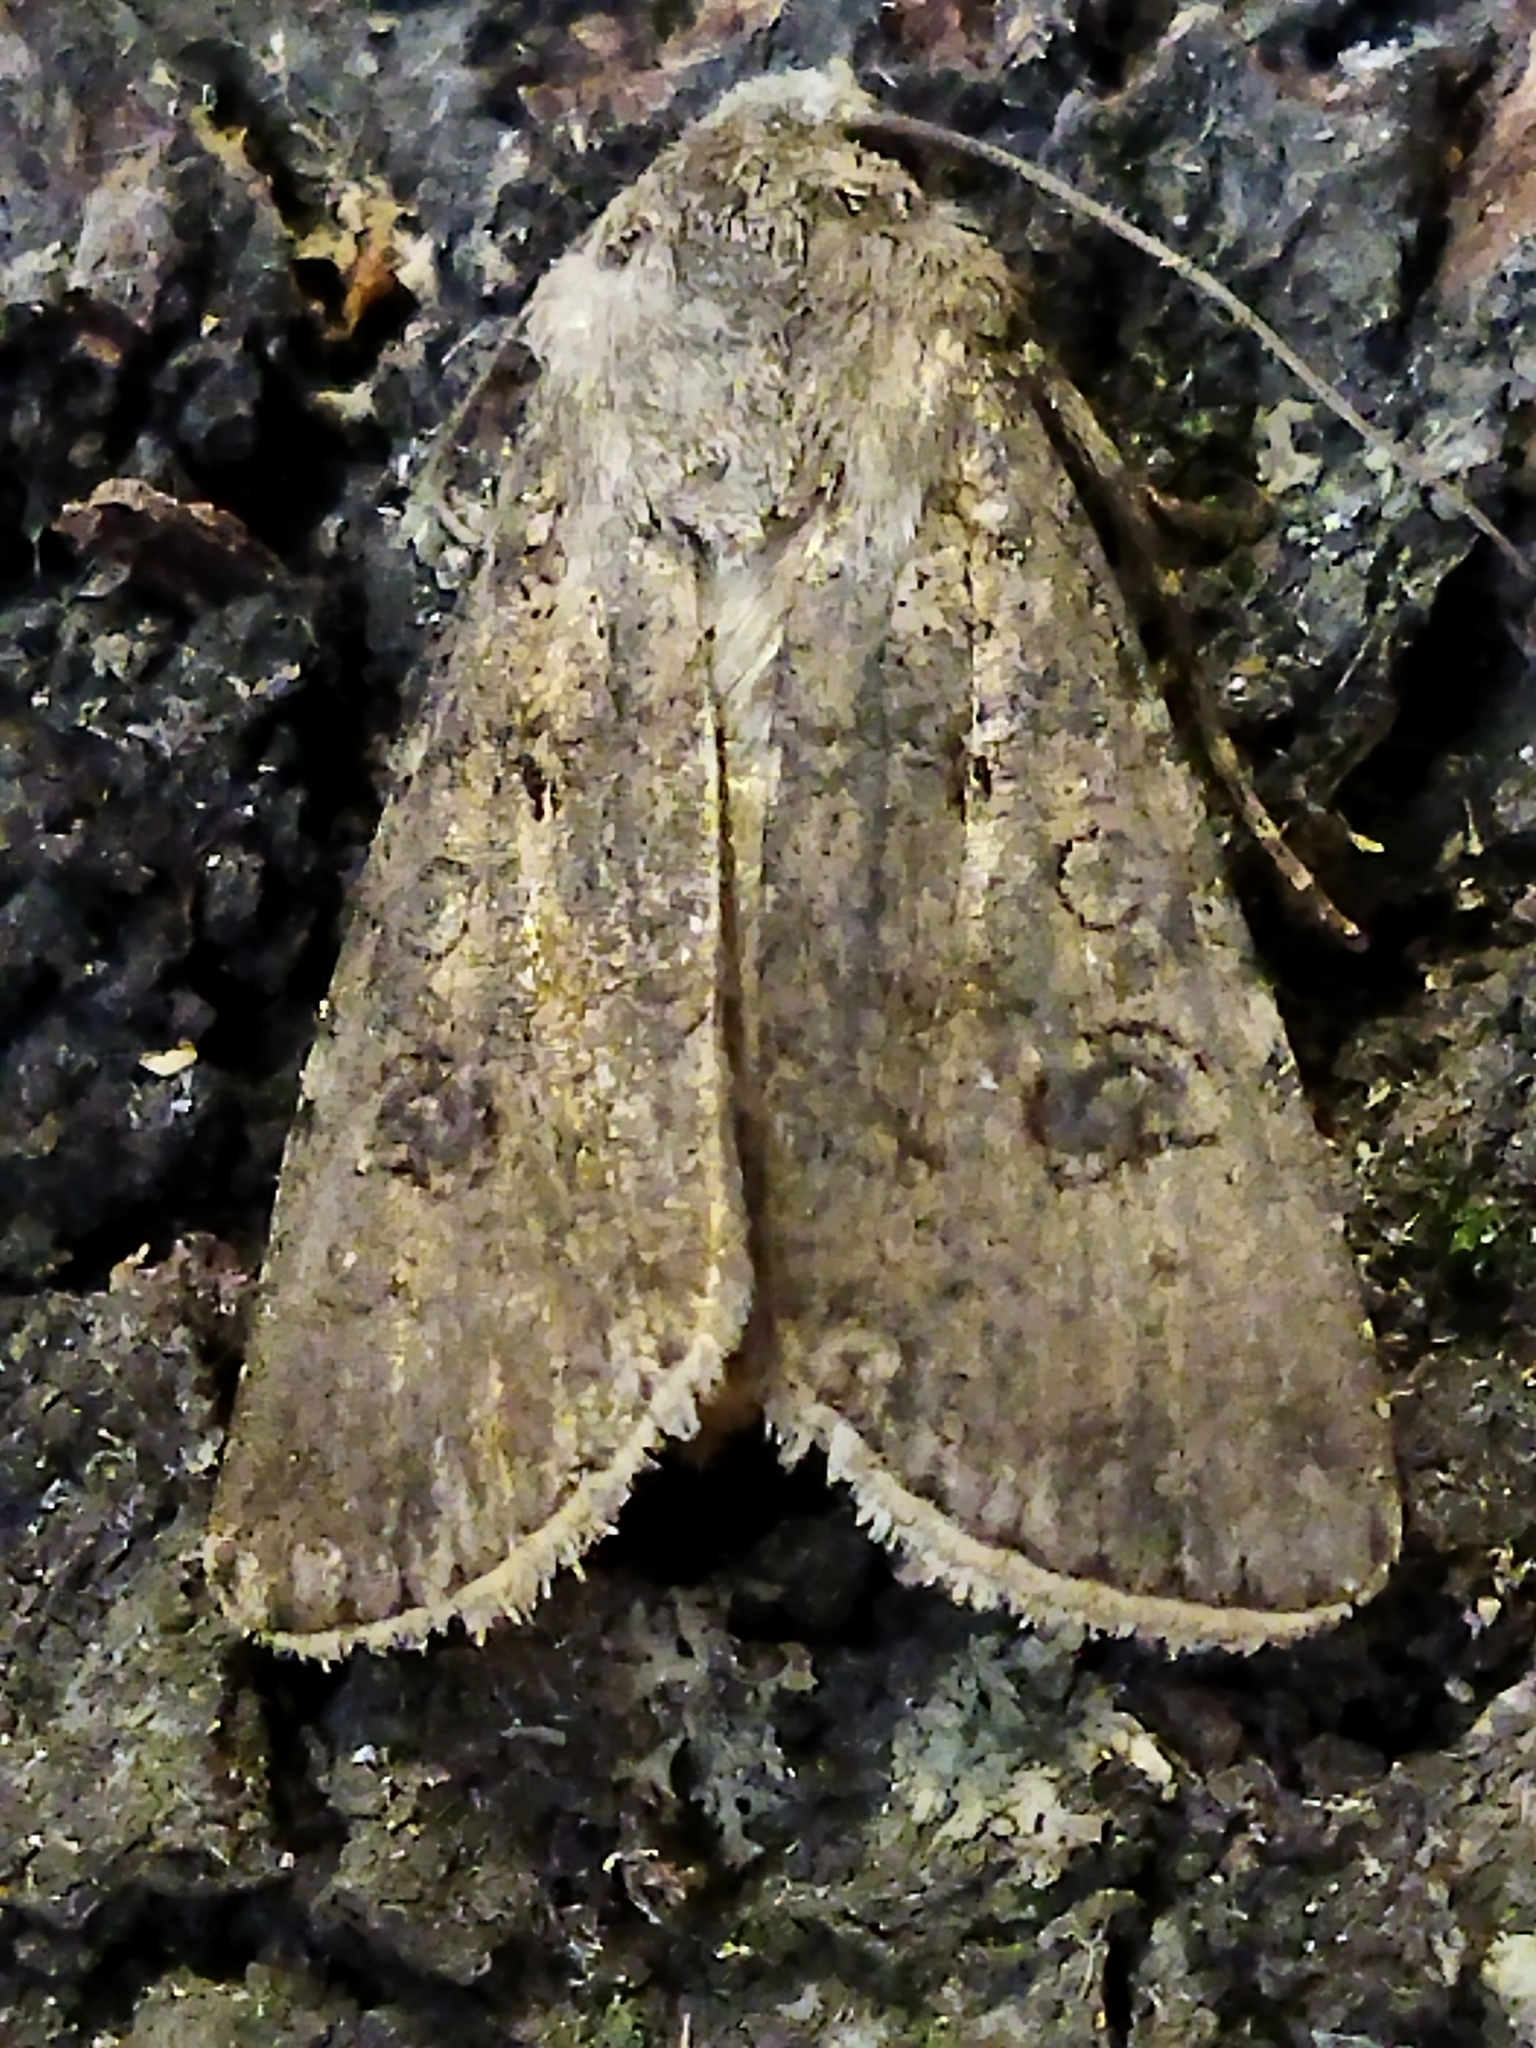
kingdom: Animalia
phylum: Arthropoda
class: Insecta
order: Lepidoptera
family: Noctuidae
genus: Agrotis
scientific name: Agrotis segetum
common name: Turnip moth
